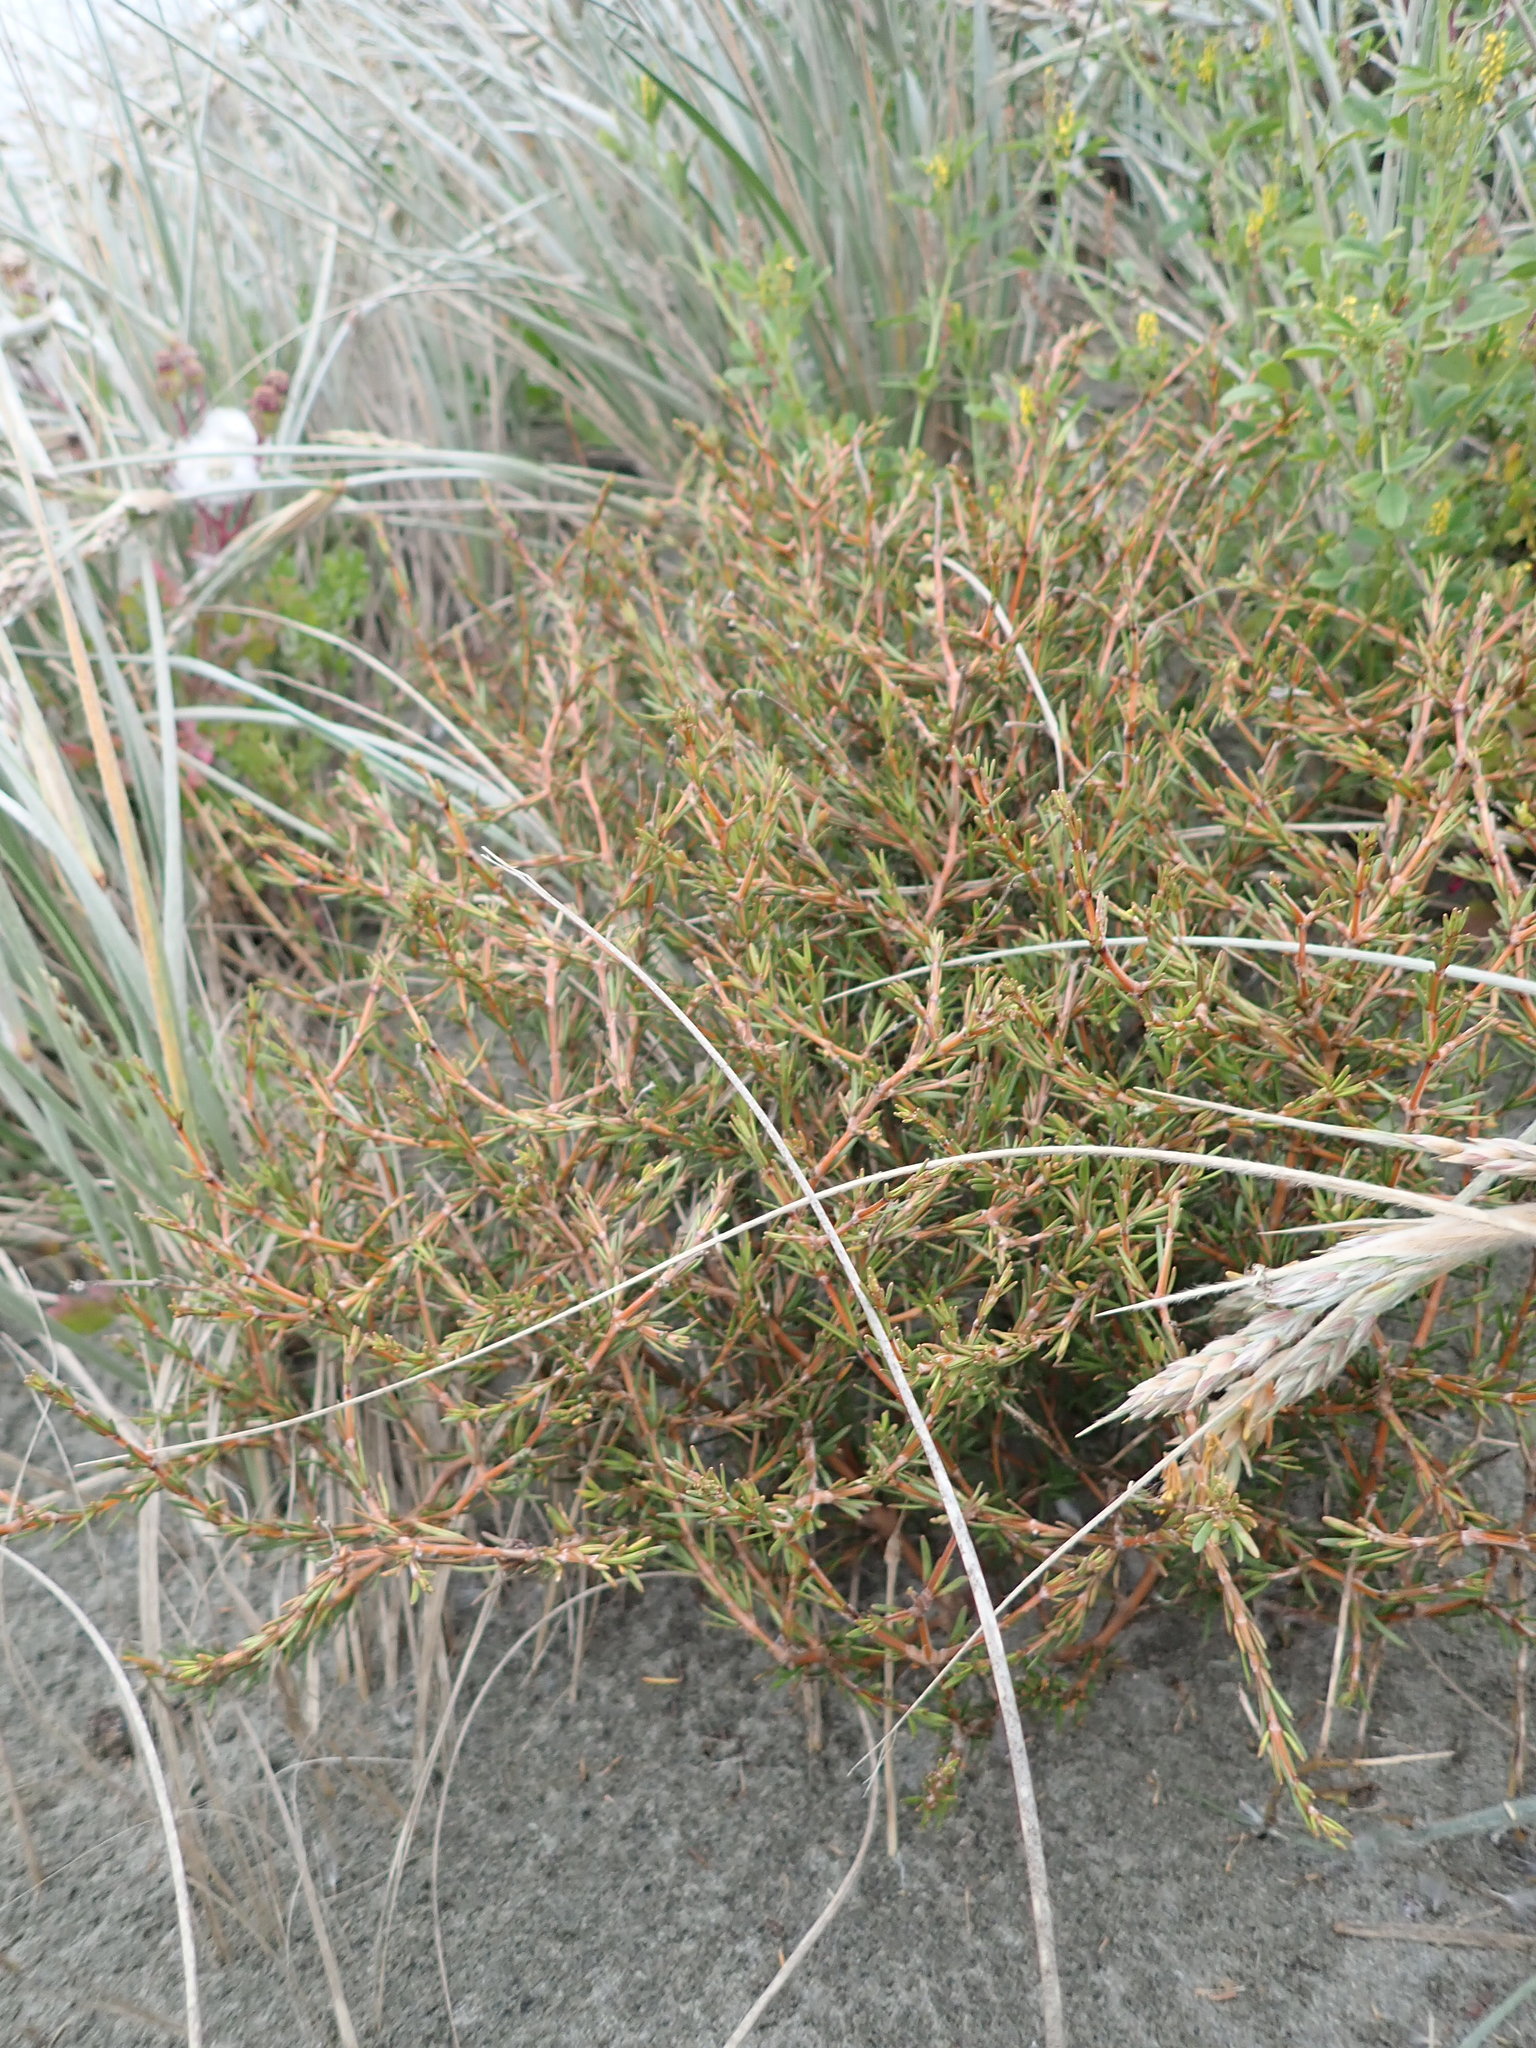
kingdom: Plantae
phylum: Tracheophyta
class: Magnoliopsida
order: Gentianales
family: Rubiaceae
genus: Coprosma
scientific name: Coprosma acerosa
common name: Sand coprosma
